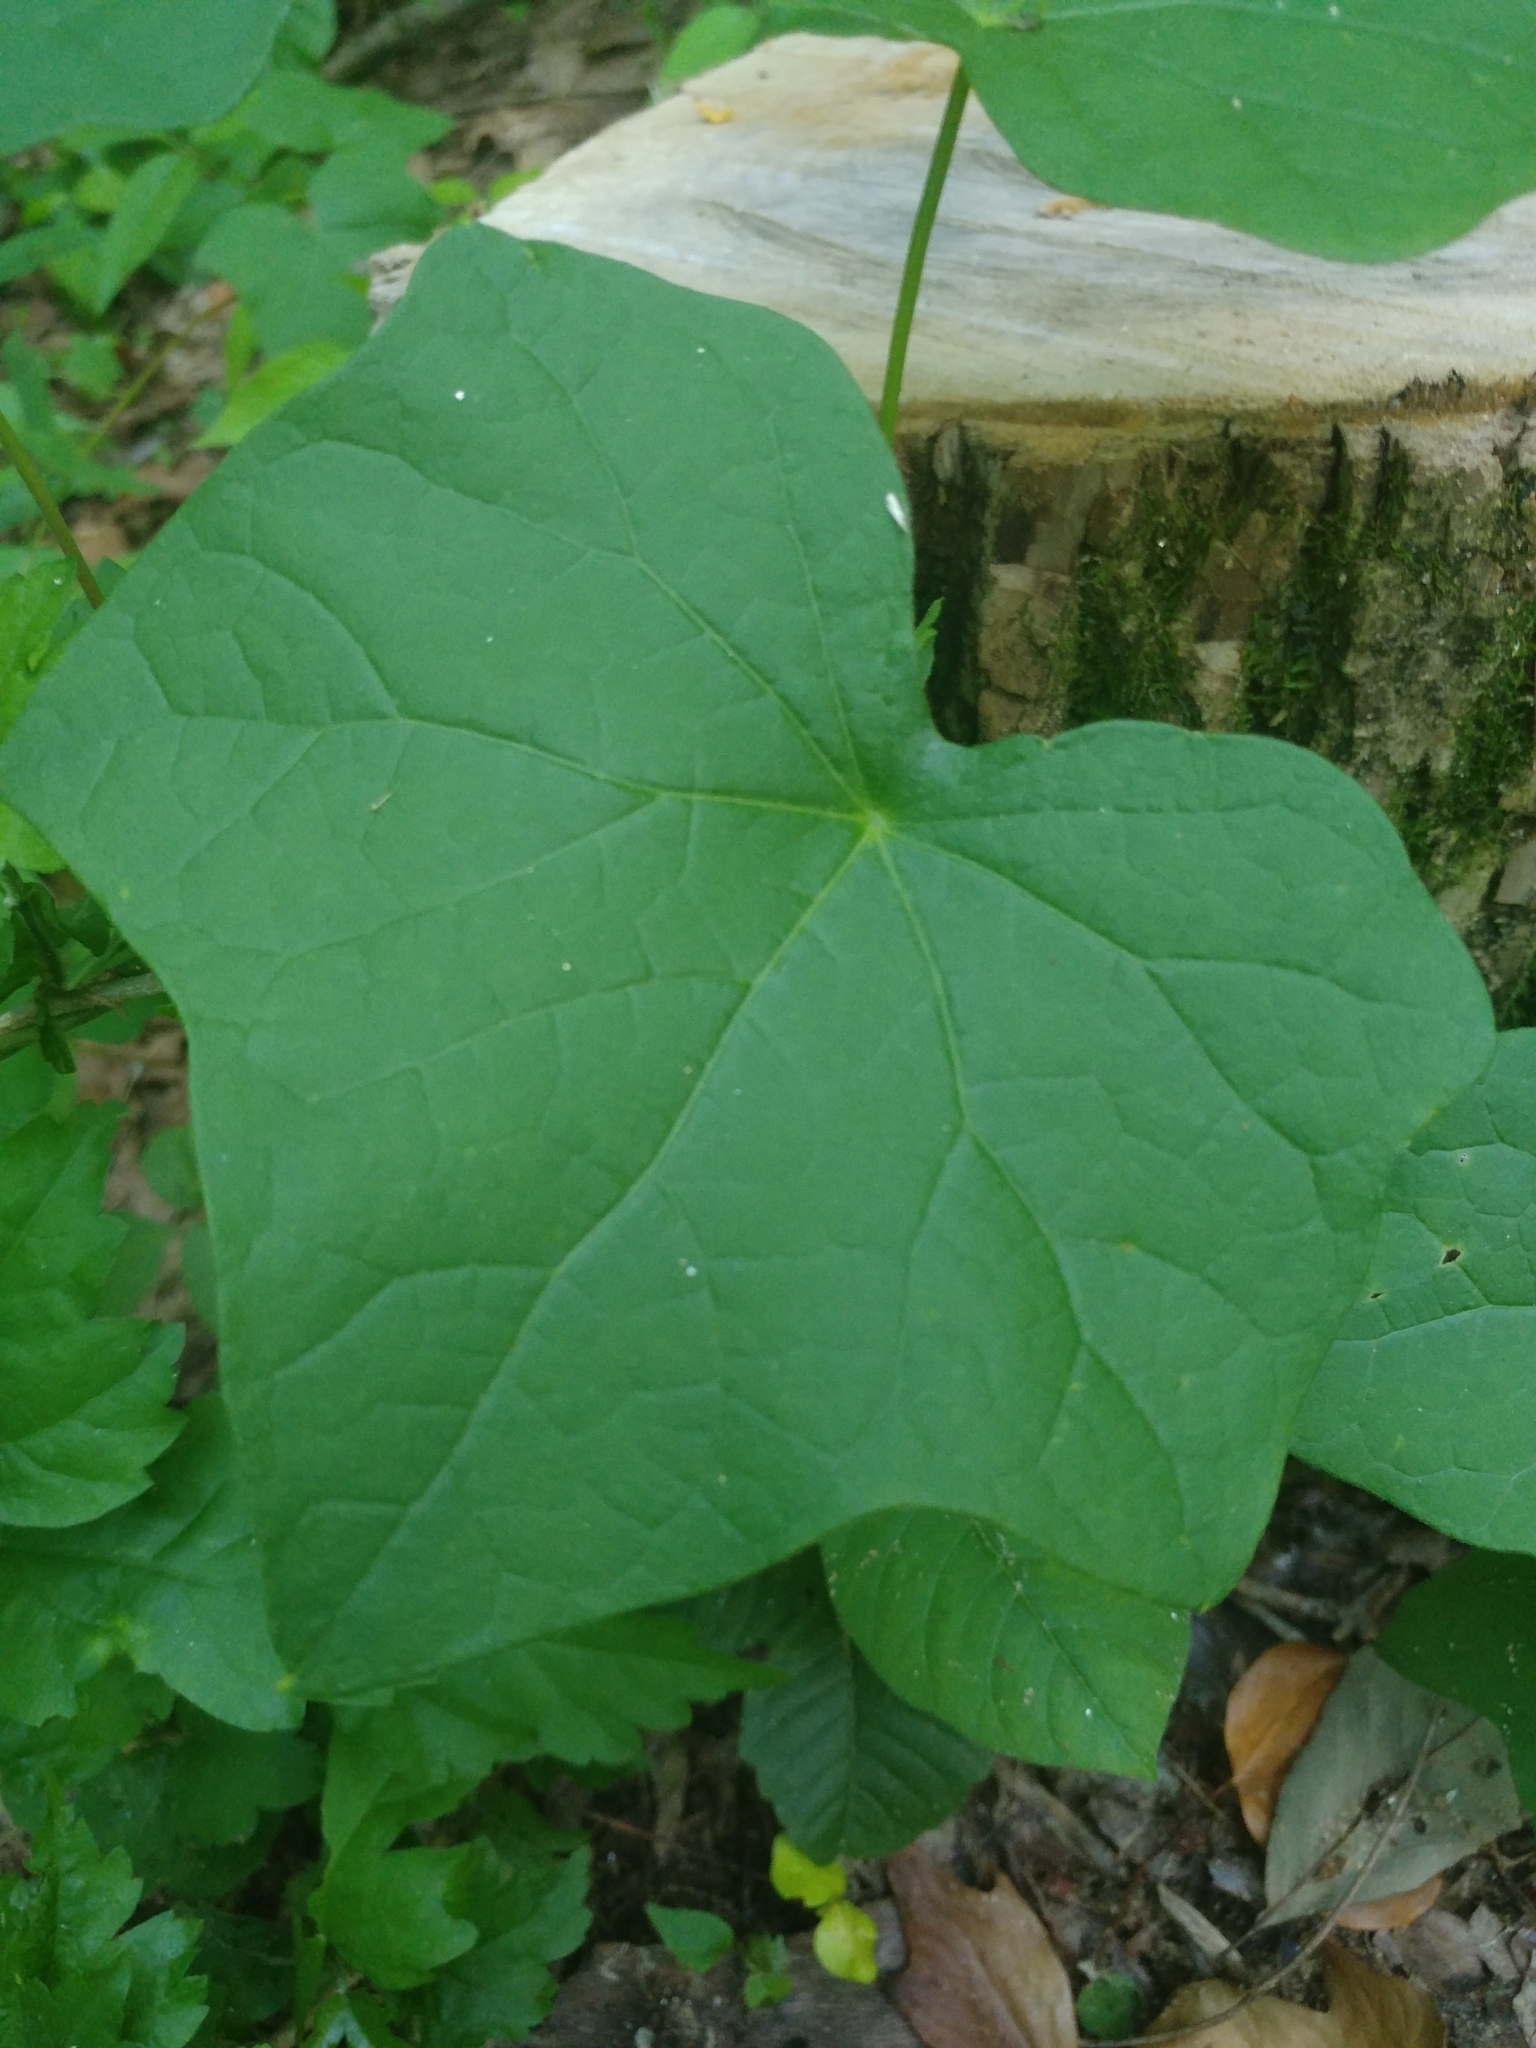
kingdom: Plantae
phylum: Tracheophyta
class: Magnoliopsida
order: Ranunculales
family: Menispermaceae
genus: Menispermum
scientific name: Menispermum canadense
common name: Moonseed
